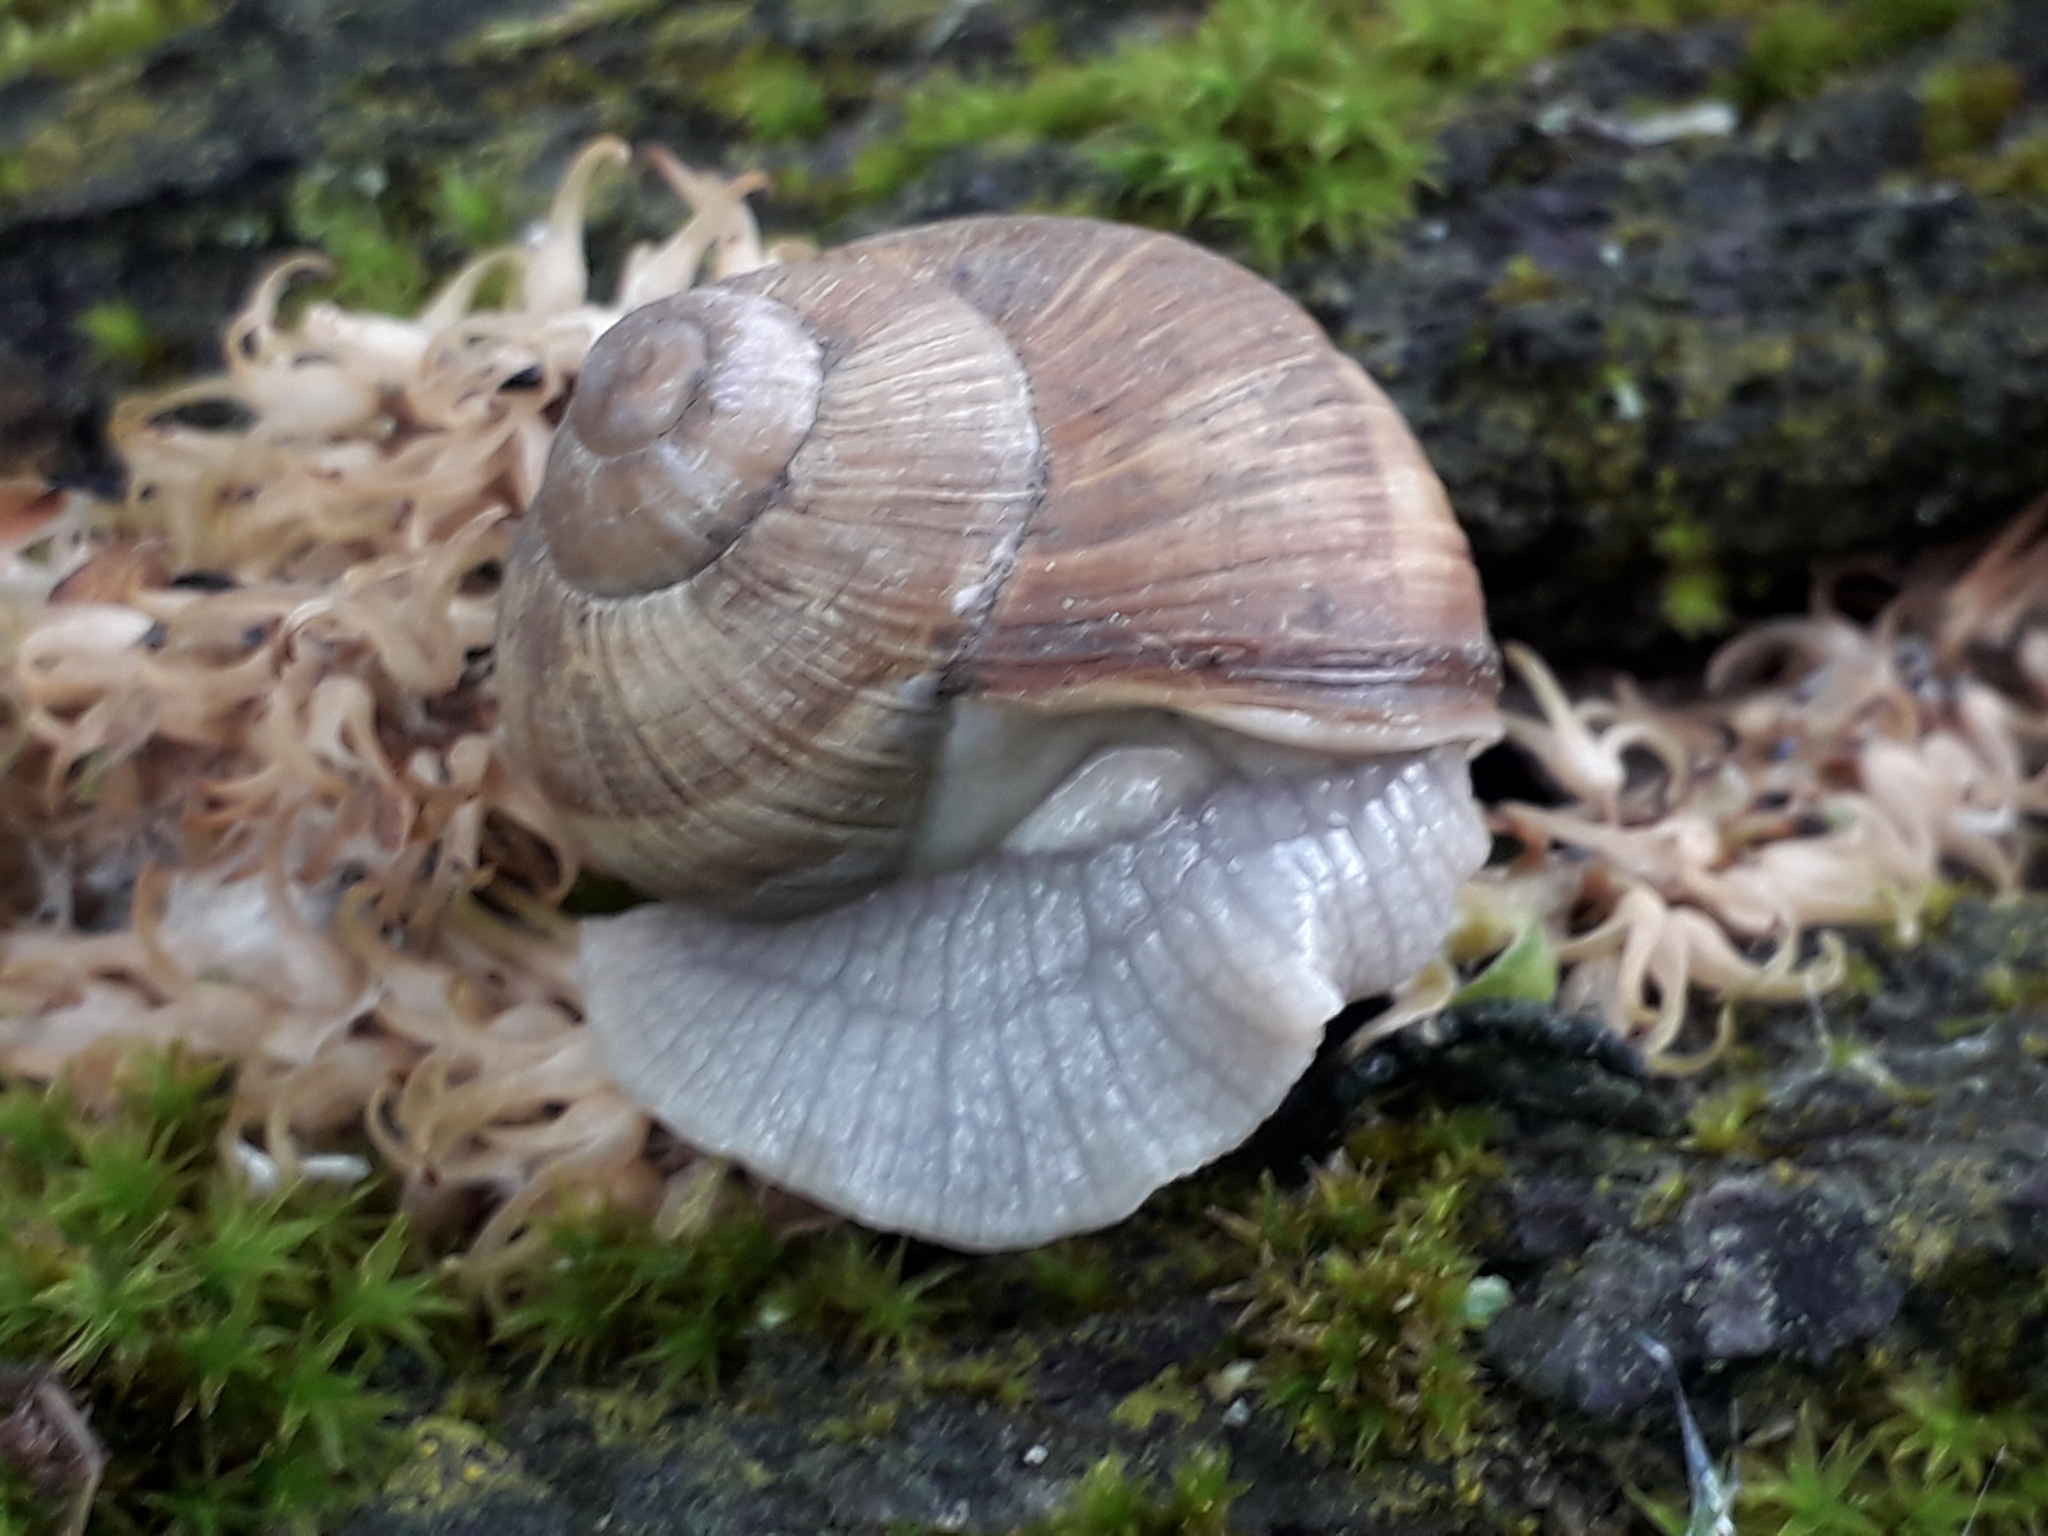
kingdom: Animalia
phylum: Mollusca
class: Gastropoda
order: Stylommatophora
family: Helicidae
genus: Helix
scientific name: Helix pomatia
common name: Roman snail
